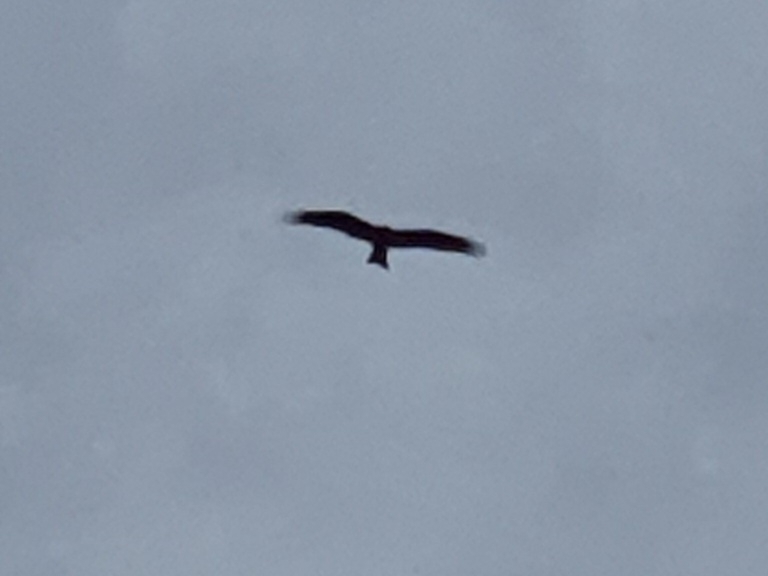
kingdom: Animalia
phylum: Chordata
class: Aves
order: Accipitriformes
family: Accipitridae
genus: Milvus
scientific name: Milvus migrans
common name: Black kite
